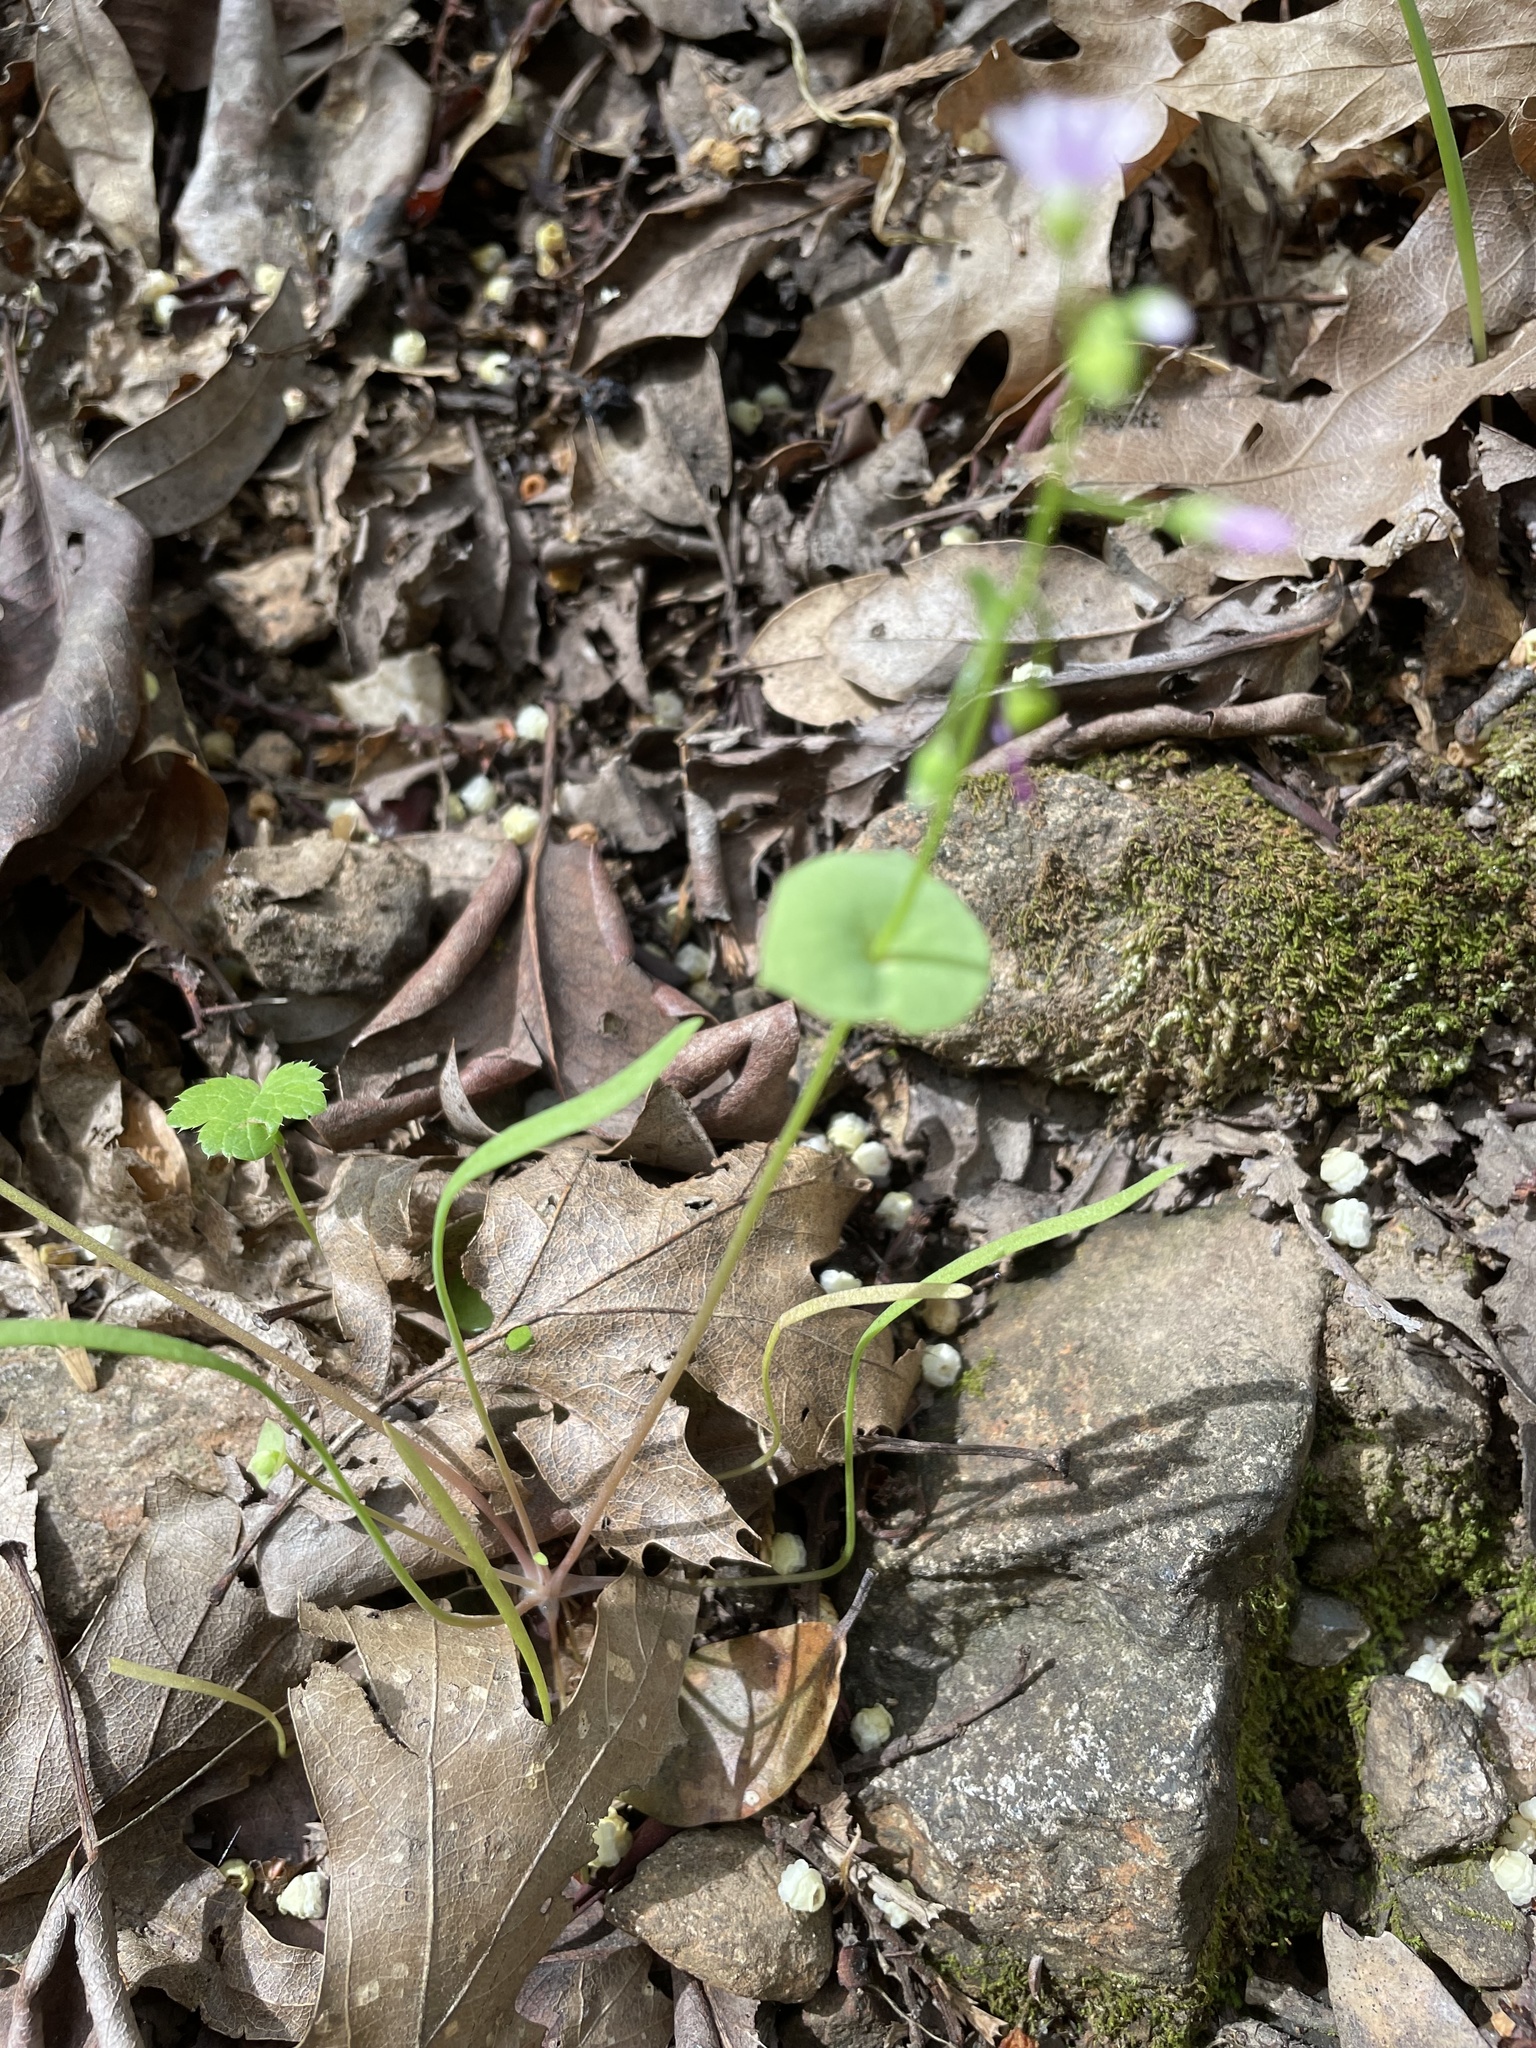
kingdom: Plantae
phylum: Tracheophyta
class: Magnoliopsida
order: Caryophyllales
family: Montiaceae
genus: Claytonia
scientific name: Claytonia parviflora
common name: Indian-lettuce
